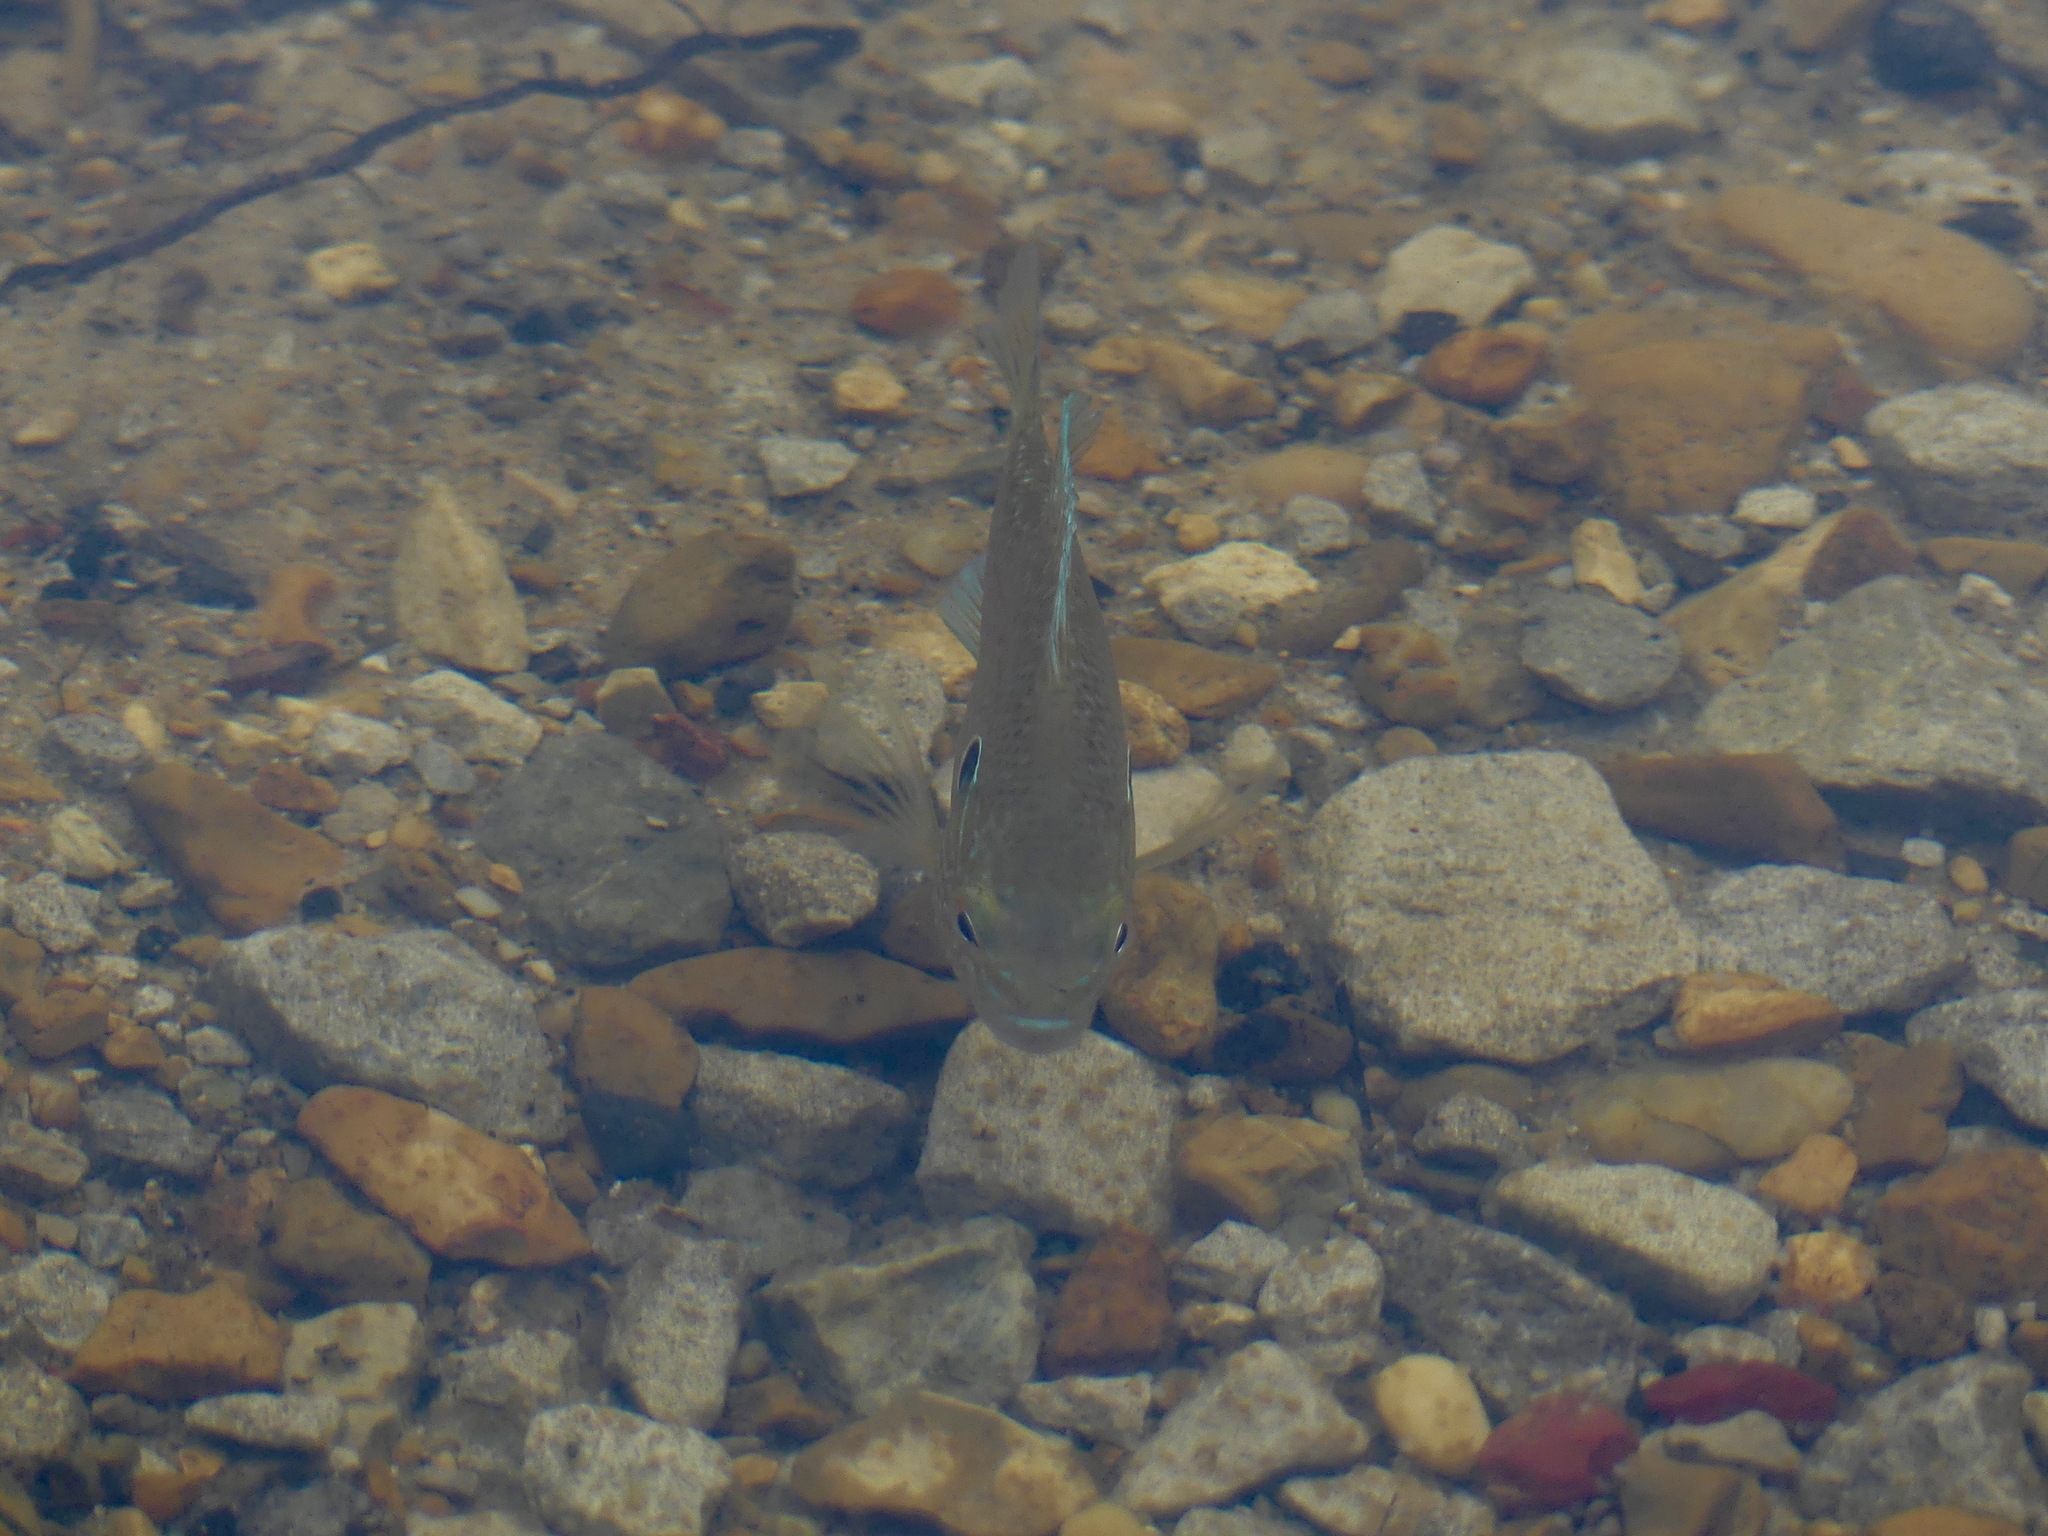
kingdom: Animalia
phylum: Chordata
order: Perciformes
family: Centrarchidae
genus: Lepomis
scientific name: Lepomis
